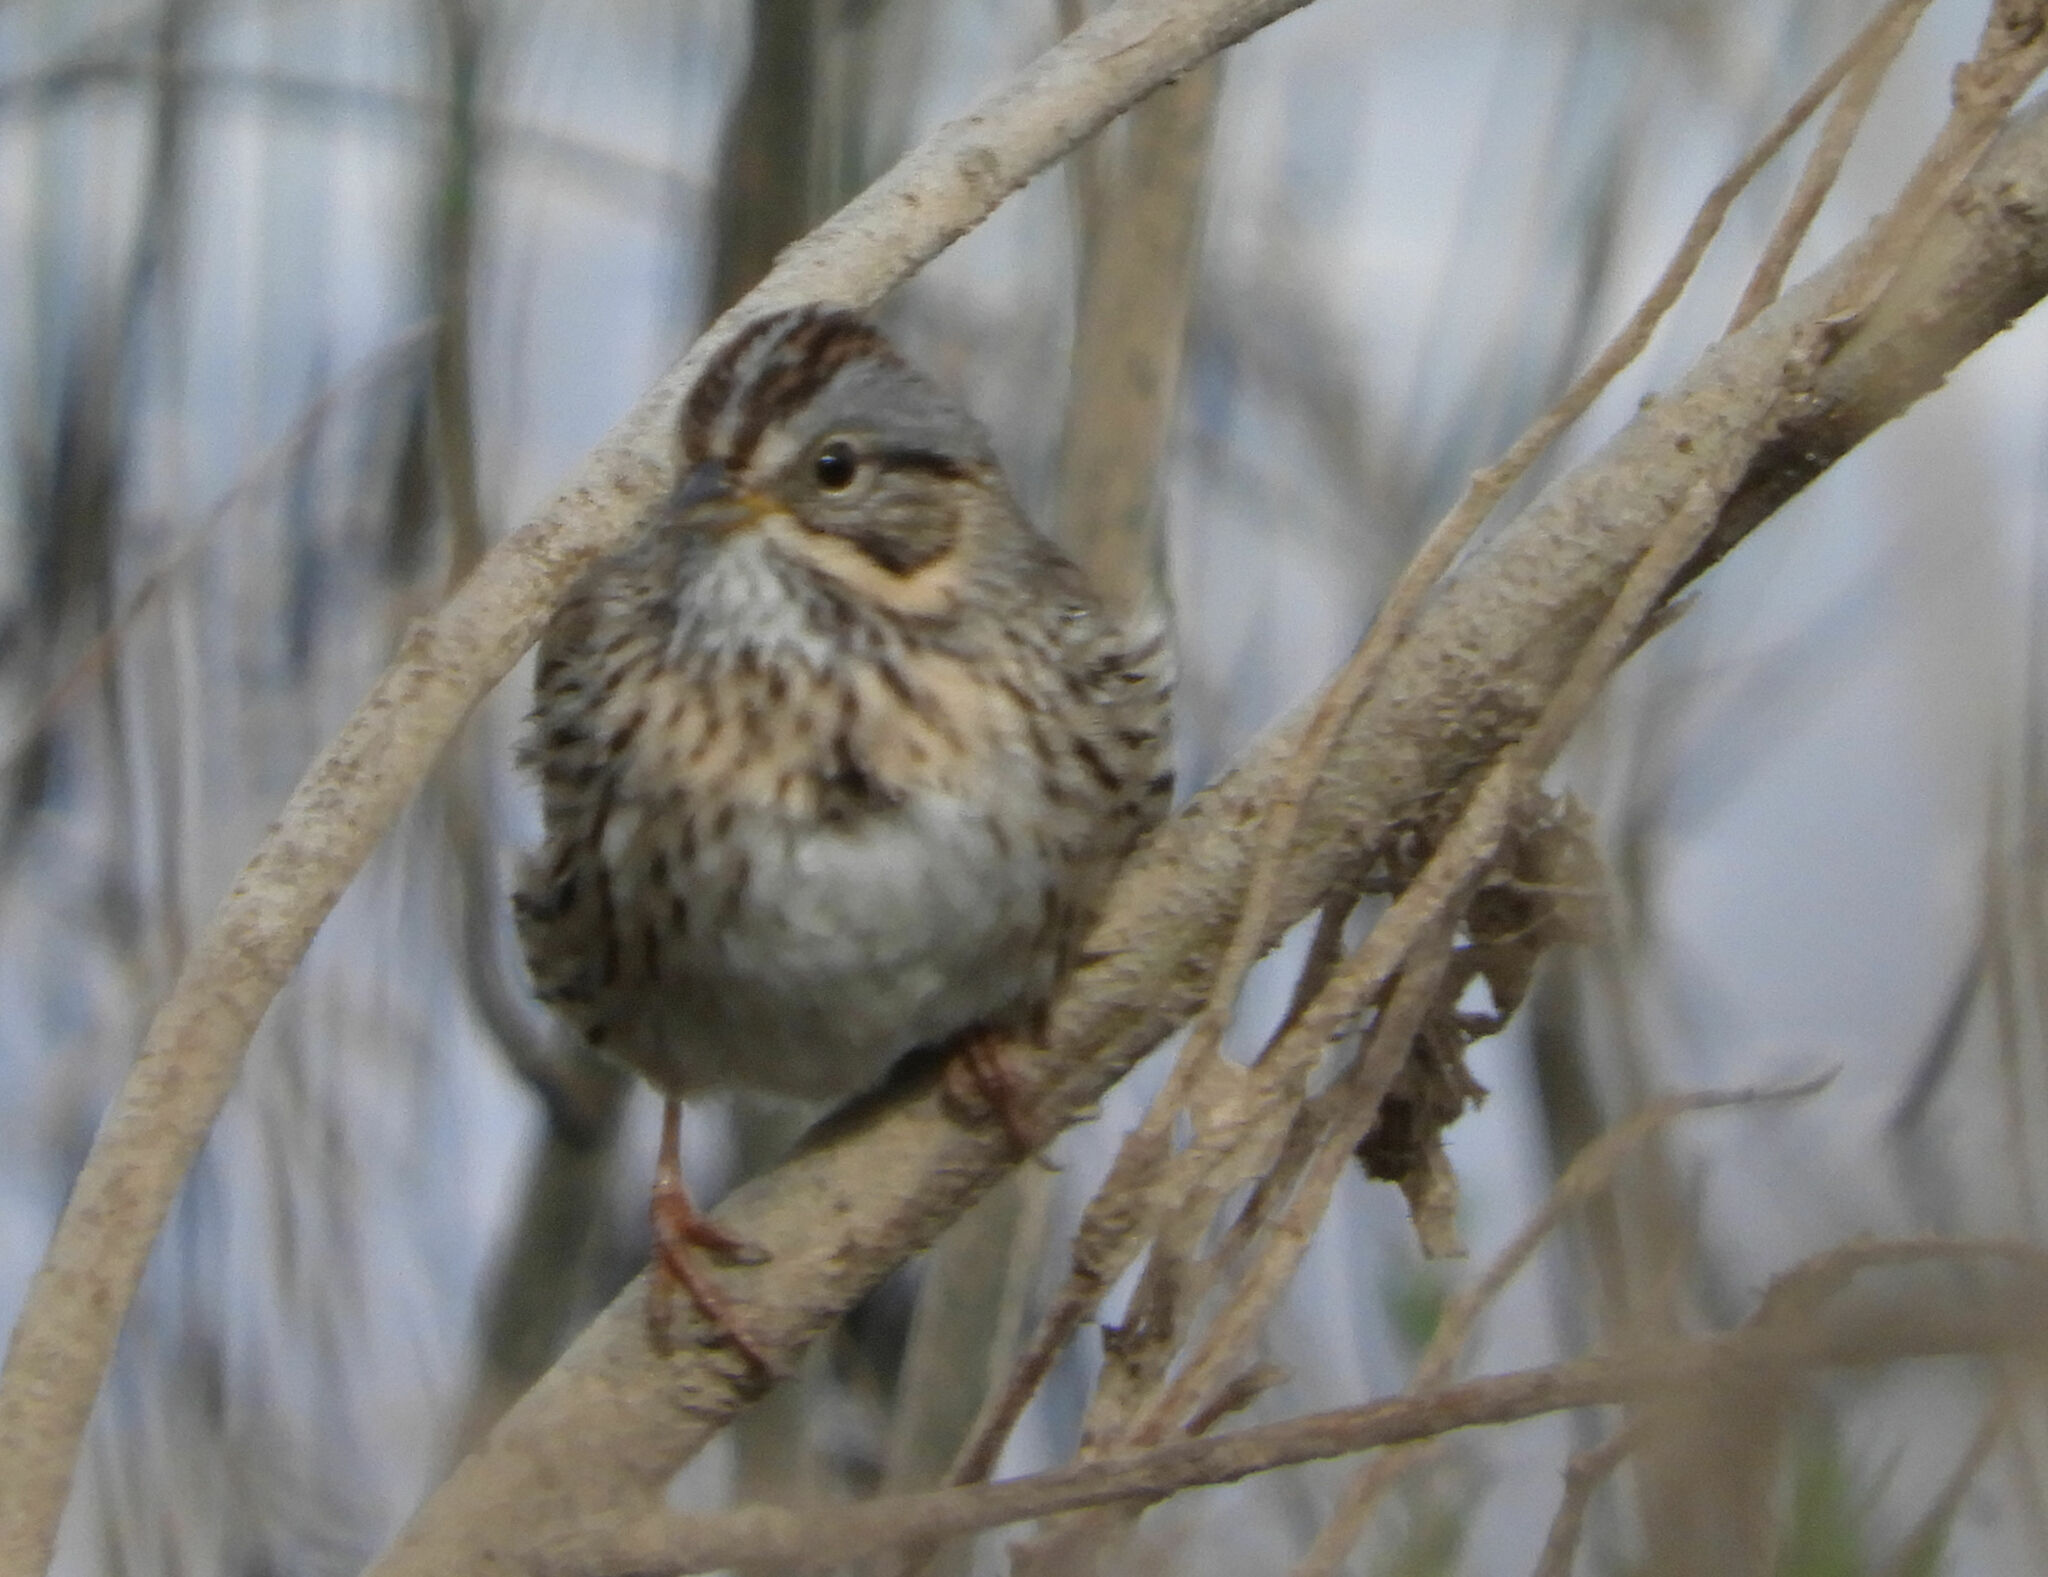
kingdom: Animalia
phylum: Chordata
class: Aves
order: Passeriformes
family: Passerellidae
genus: Melospiza
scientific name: Melospiza lincolnii
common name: Lincoln's sparrow
